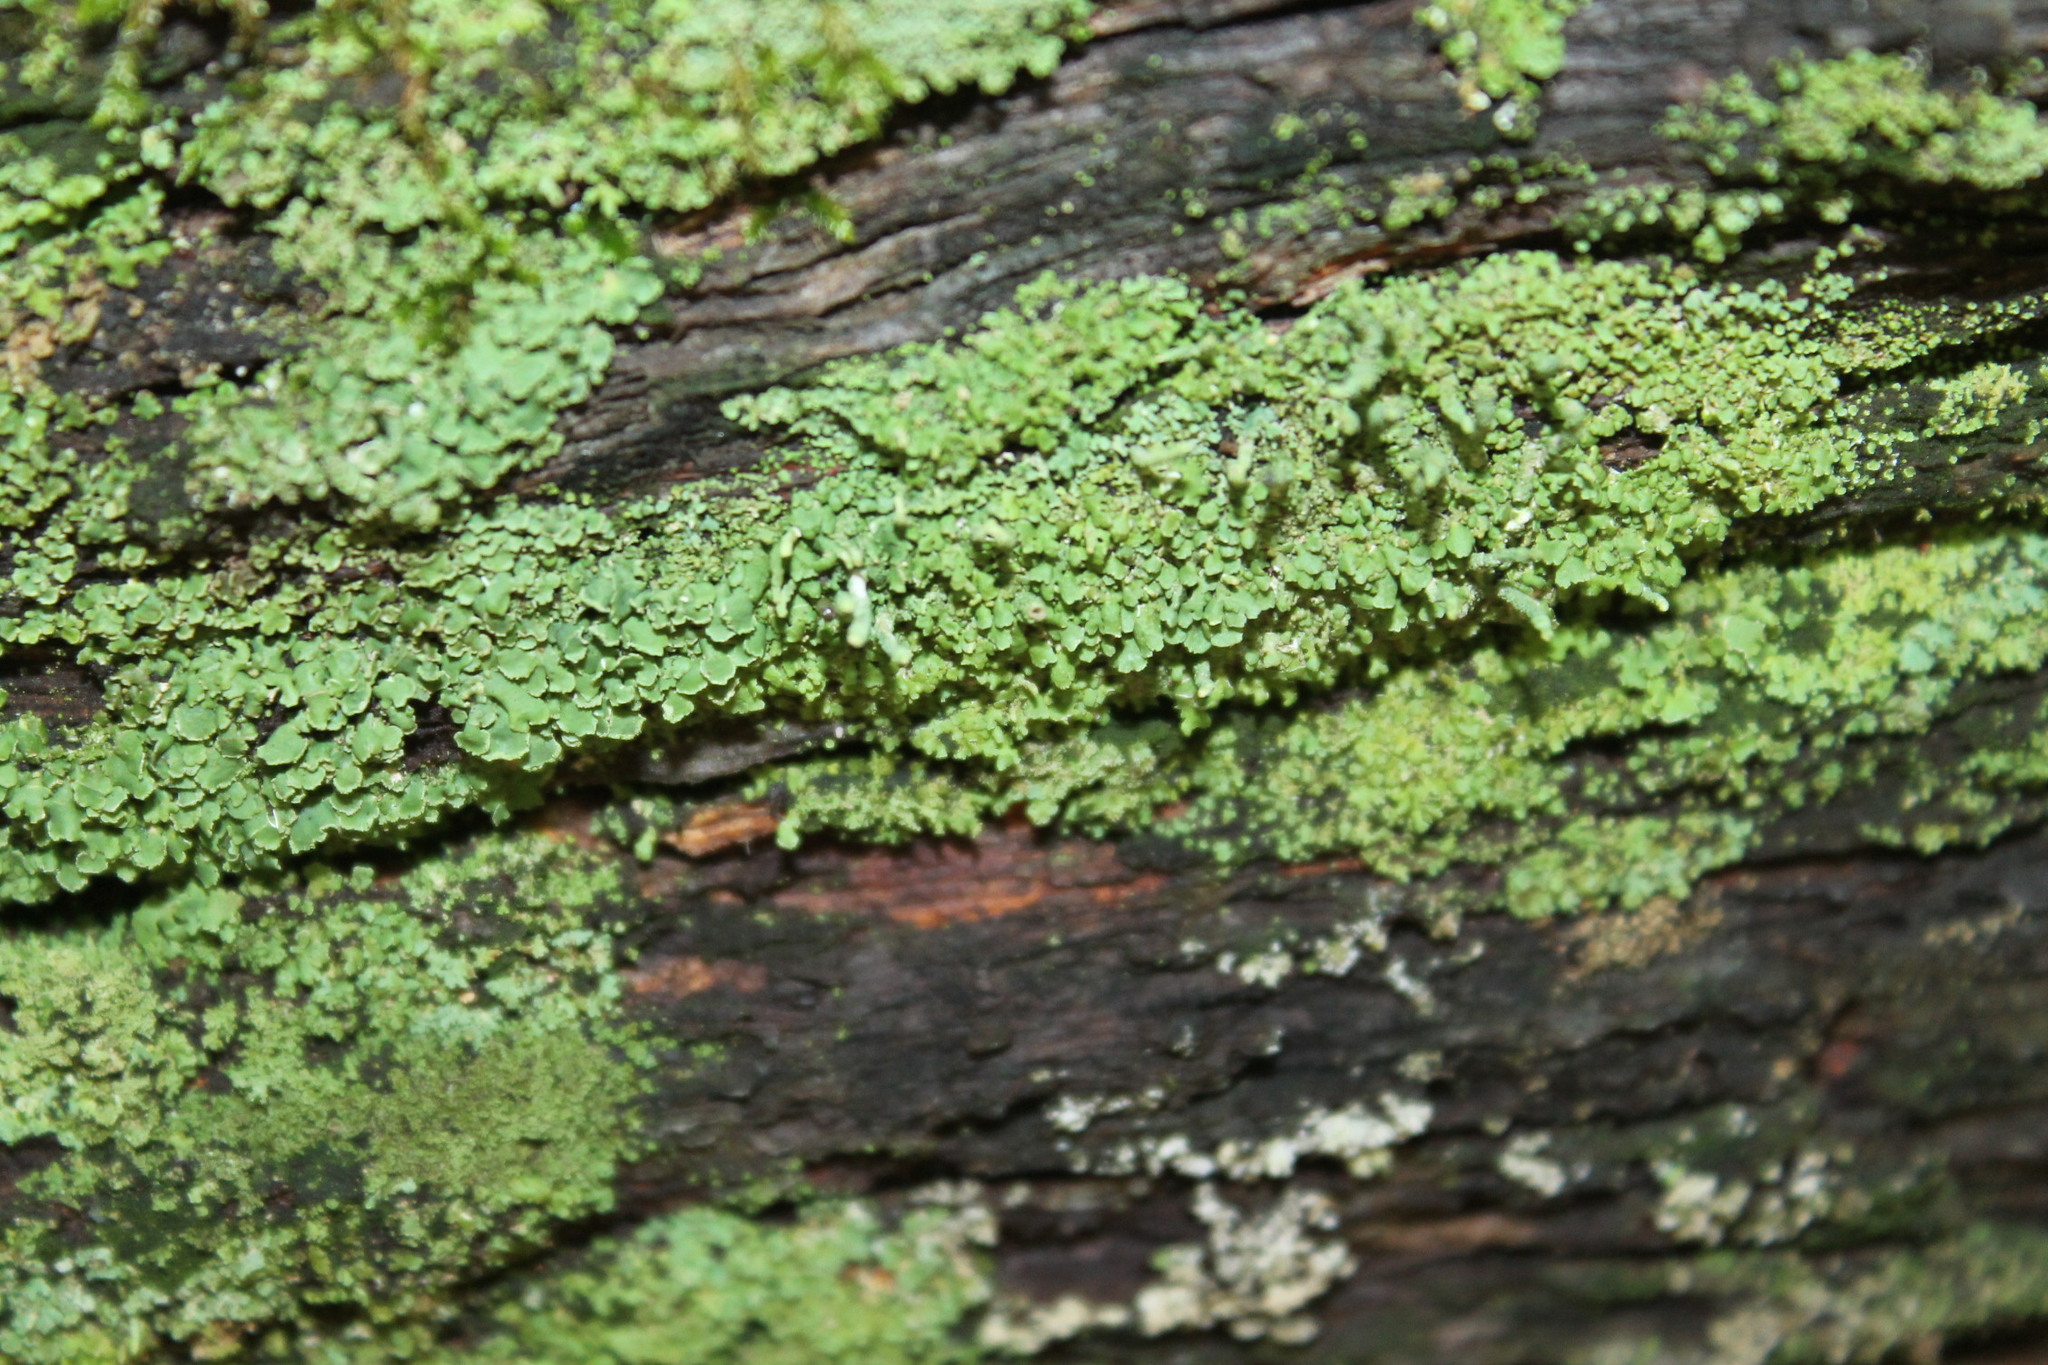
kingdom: Fungi
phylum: Ascomycota
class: Lecanoromycetes
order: Lecanorales
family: Cladoniaceae
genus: Cladonia
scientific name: Cladonia coniocraea
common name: Common powderhorn
